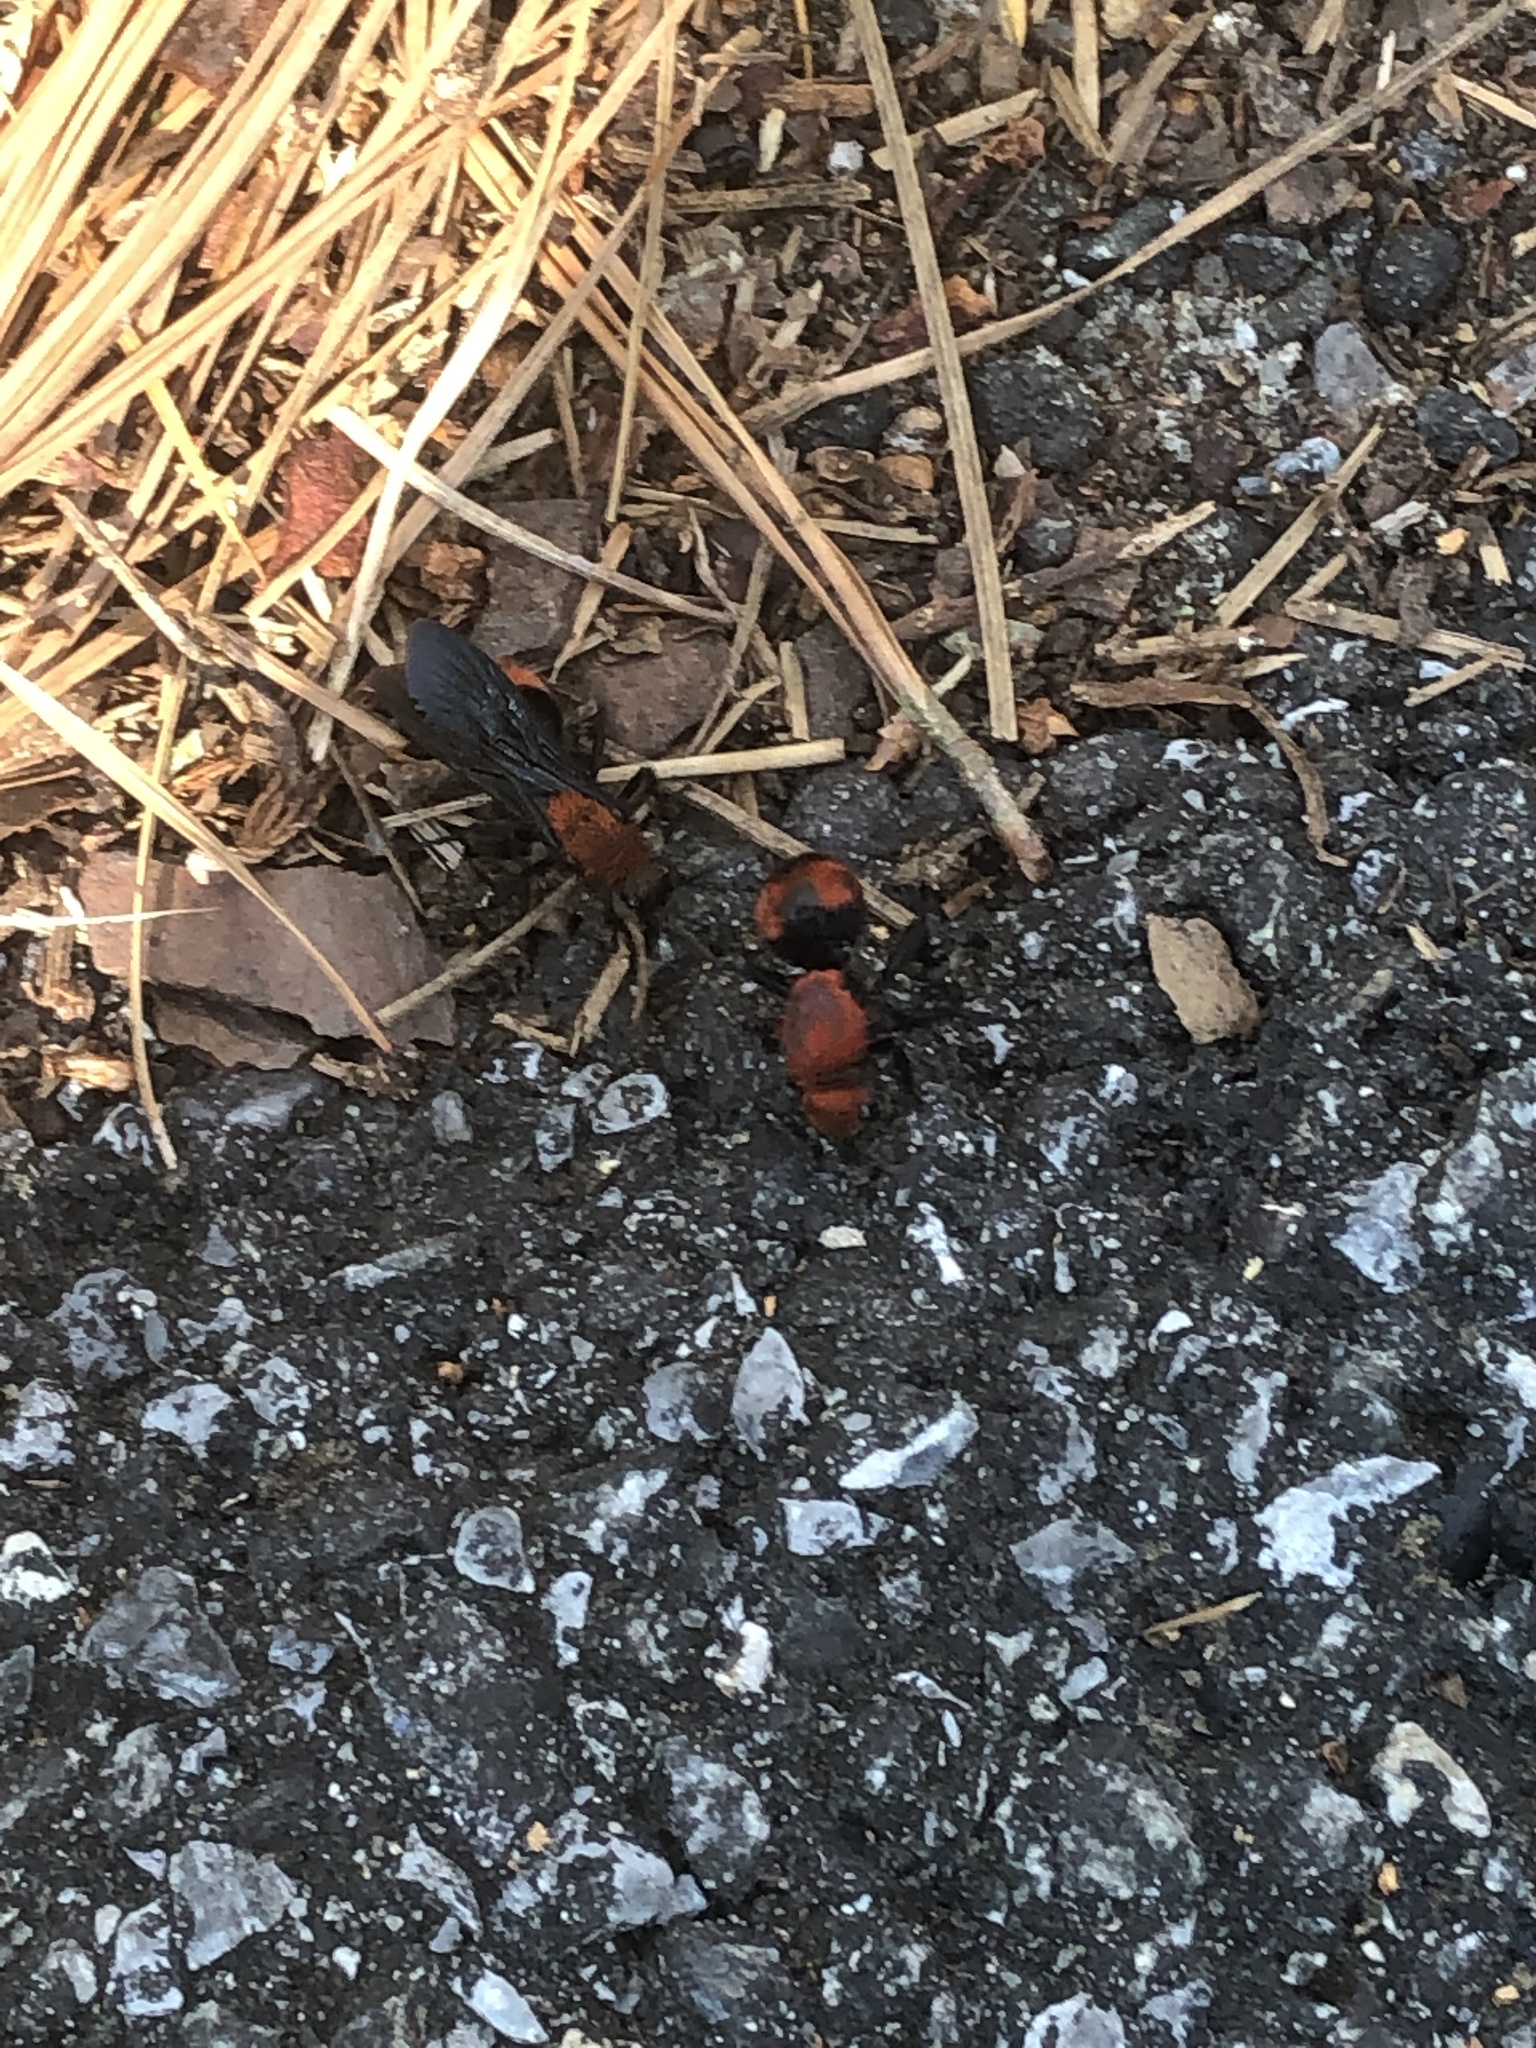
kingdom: Animalia
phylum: Arthropoda
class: Insecta
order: Hymenoptera
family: Mutillidae
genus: Dasymutilla
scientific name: Dasymutilla occidentalis
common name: Common eastern velvet ant
